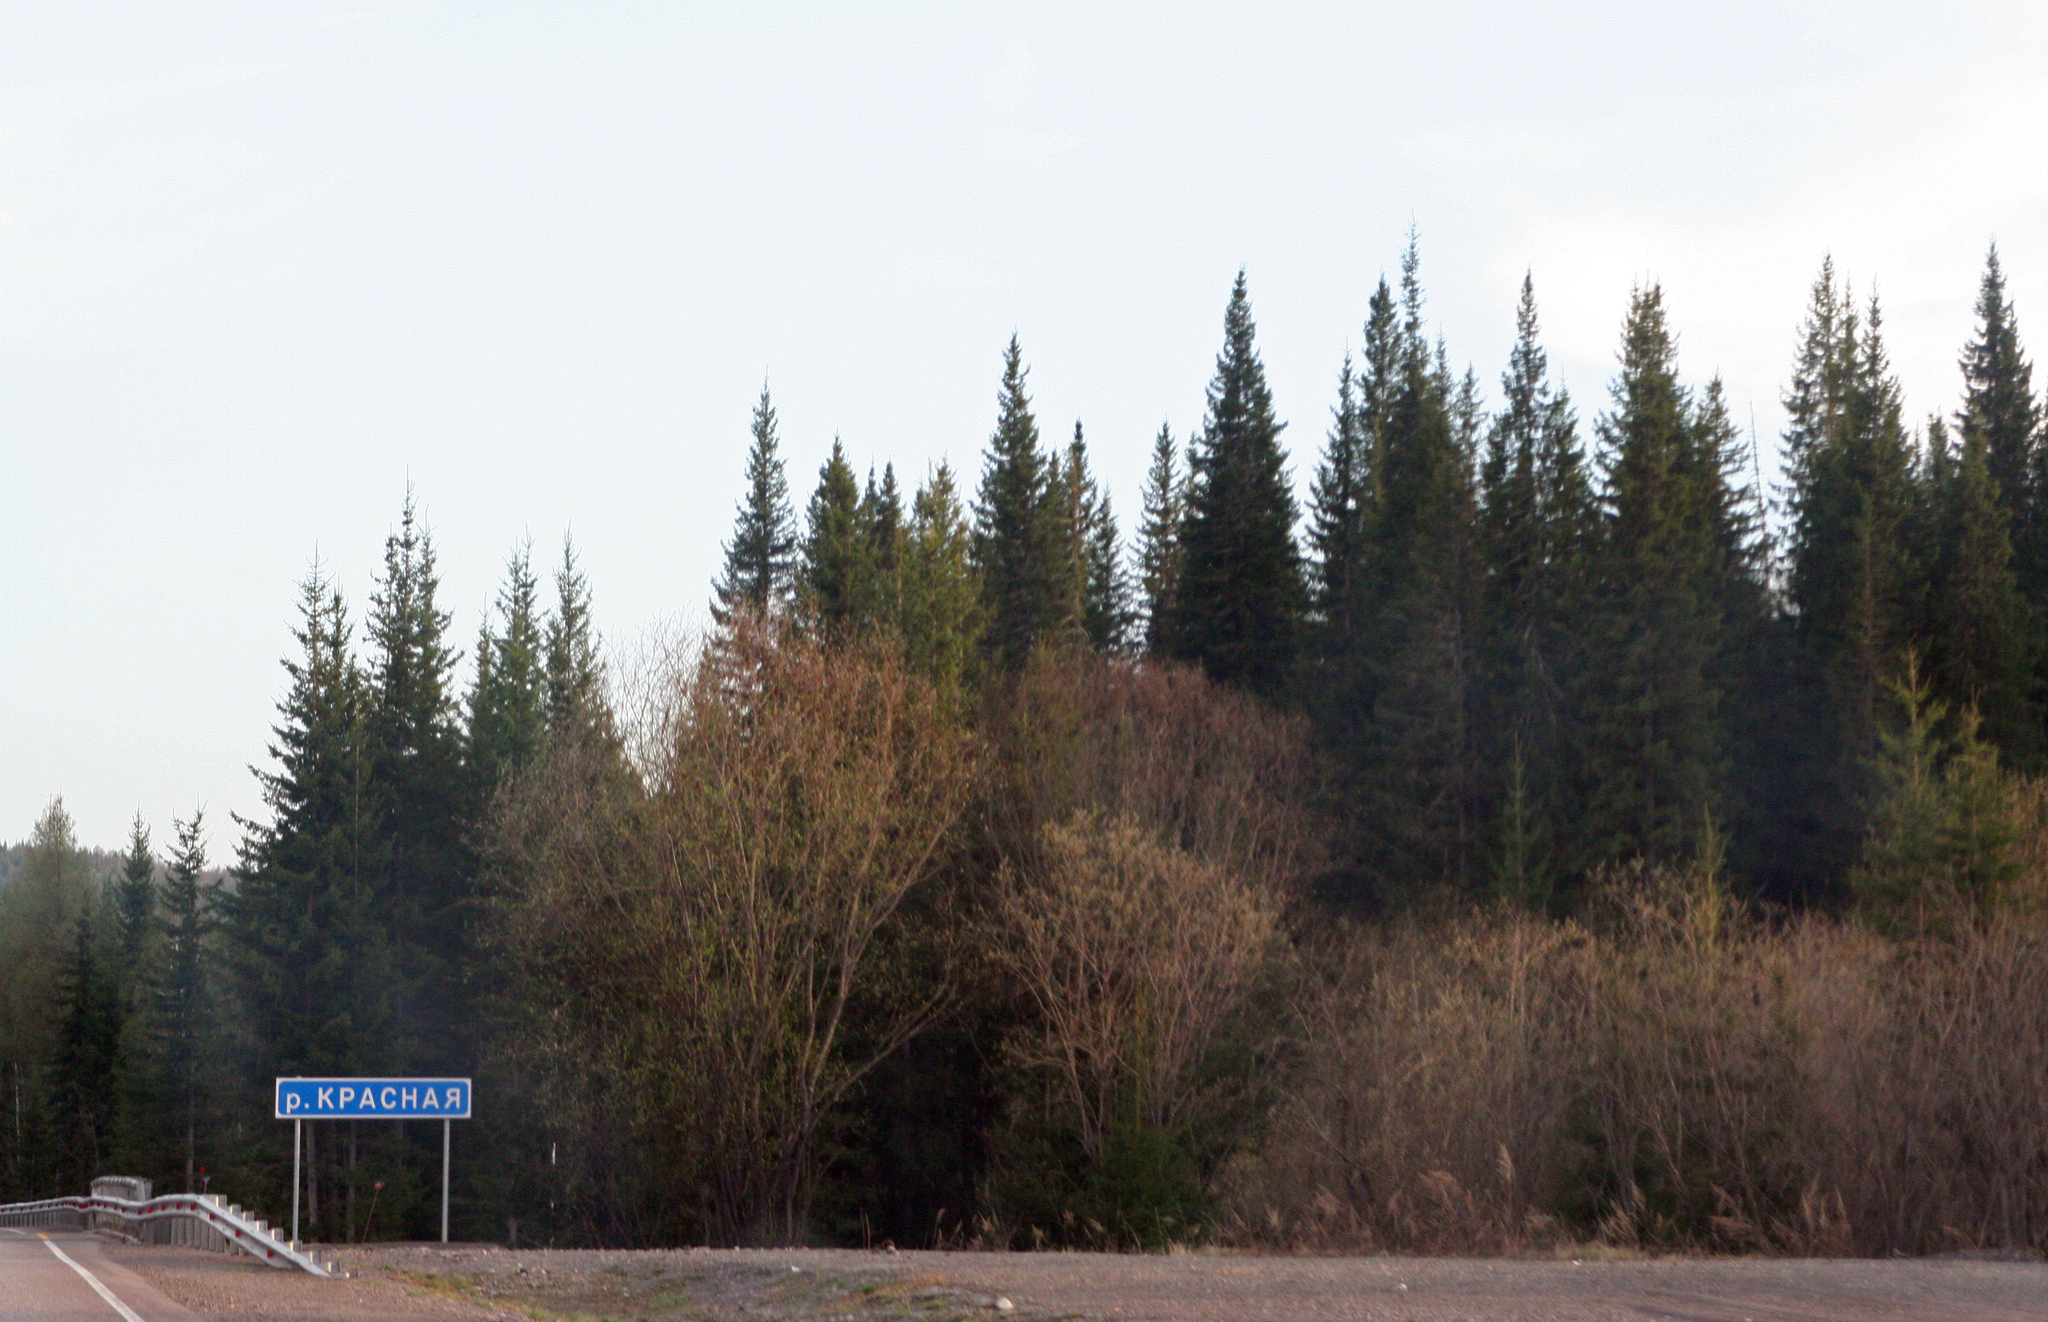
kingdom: Plantae
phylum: Tracheophyta
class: Pinopsida
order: Pinales
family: Pinaceae
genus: Picea
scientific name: Picea obovata
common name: Siberian spruce
